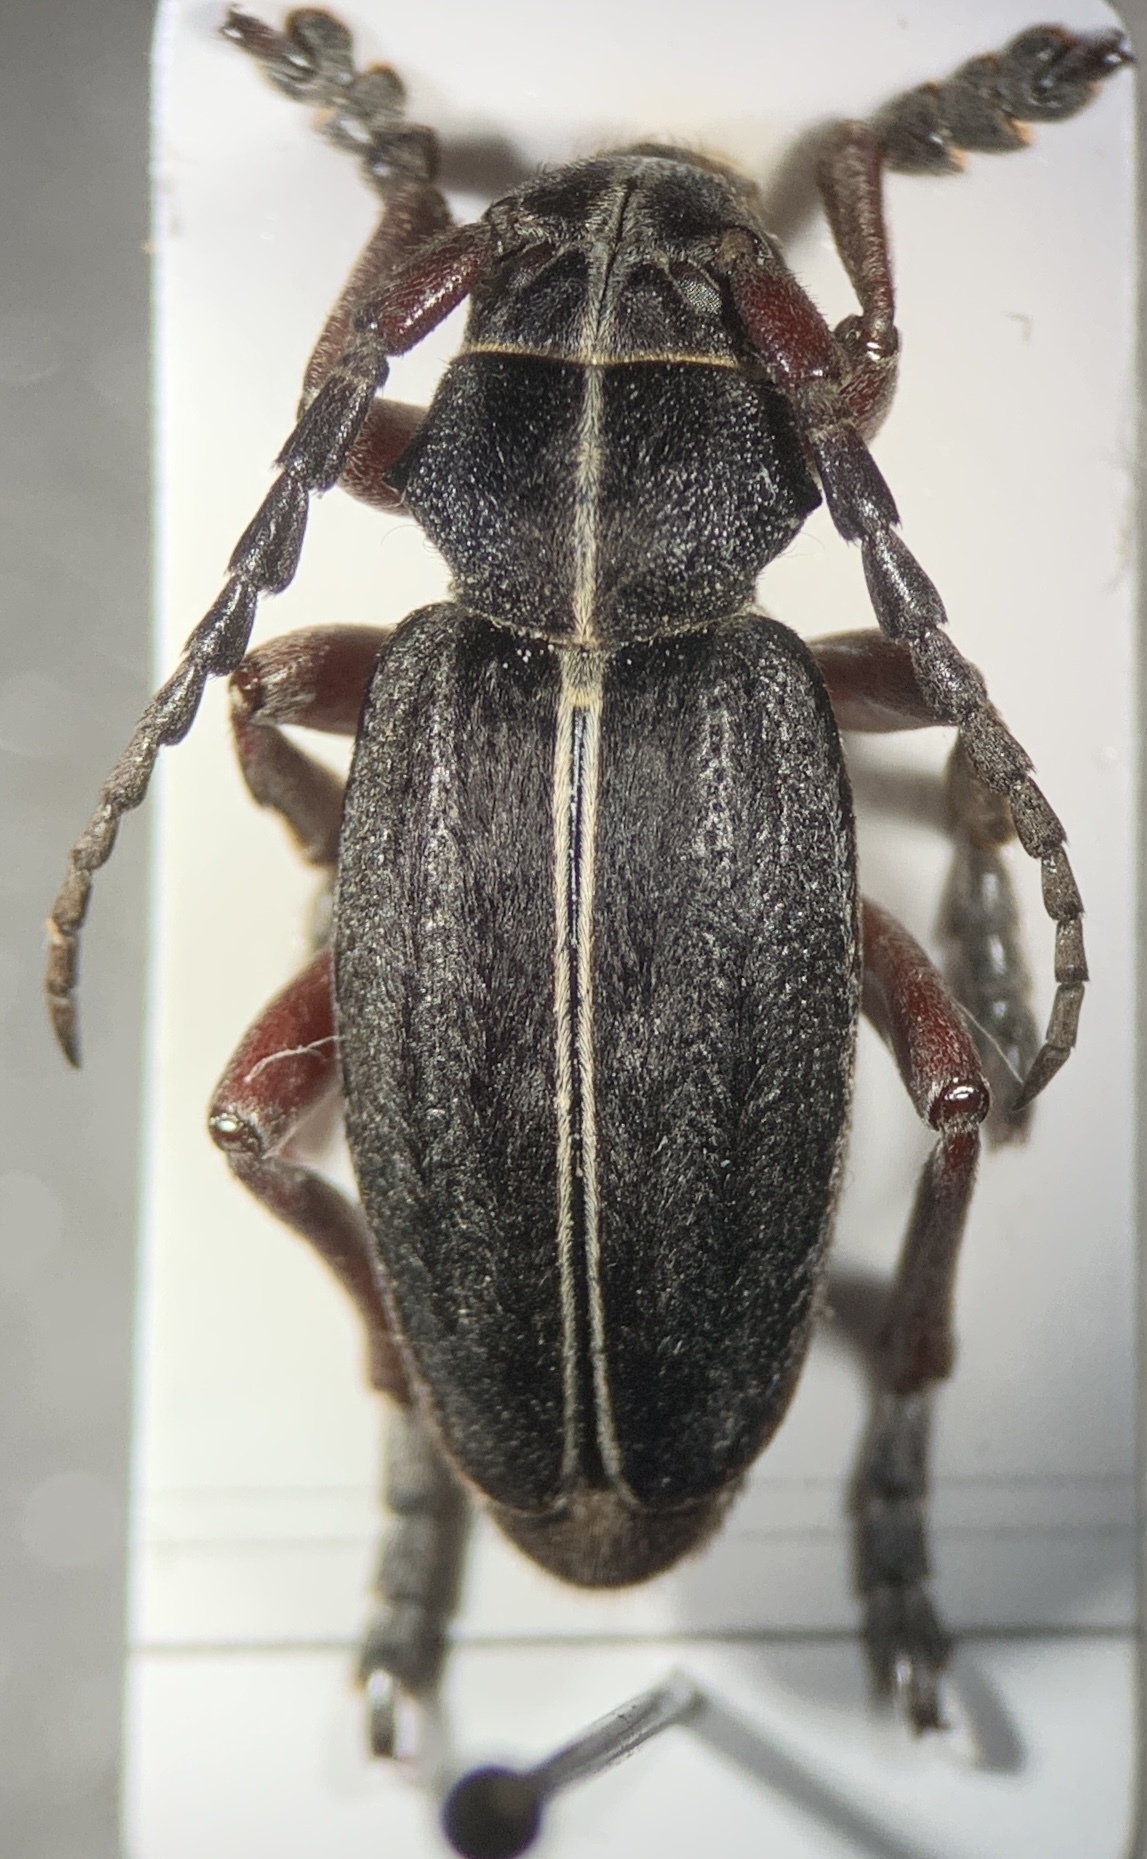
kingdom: Animalia
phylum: Arthropoda
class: Insecta
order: Coleoptera
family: Cerambycidae
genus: Dorcadion
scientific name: Dorcadion etruscum
